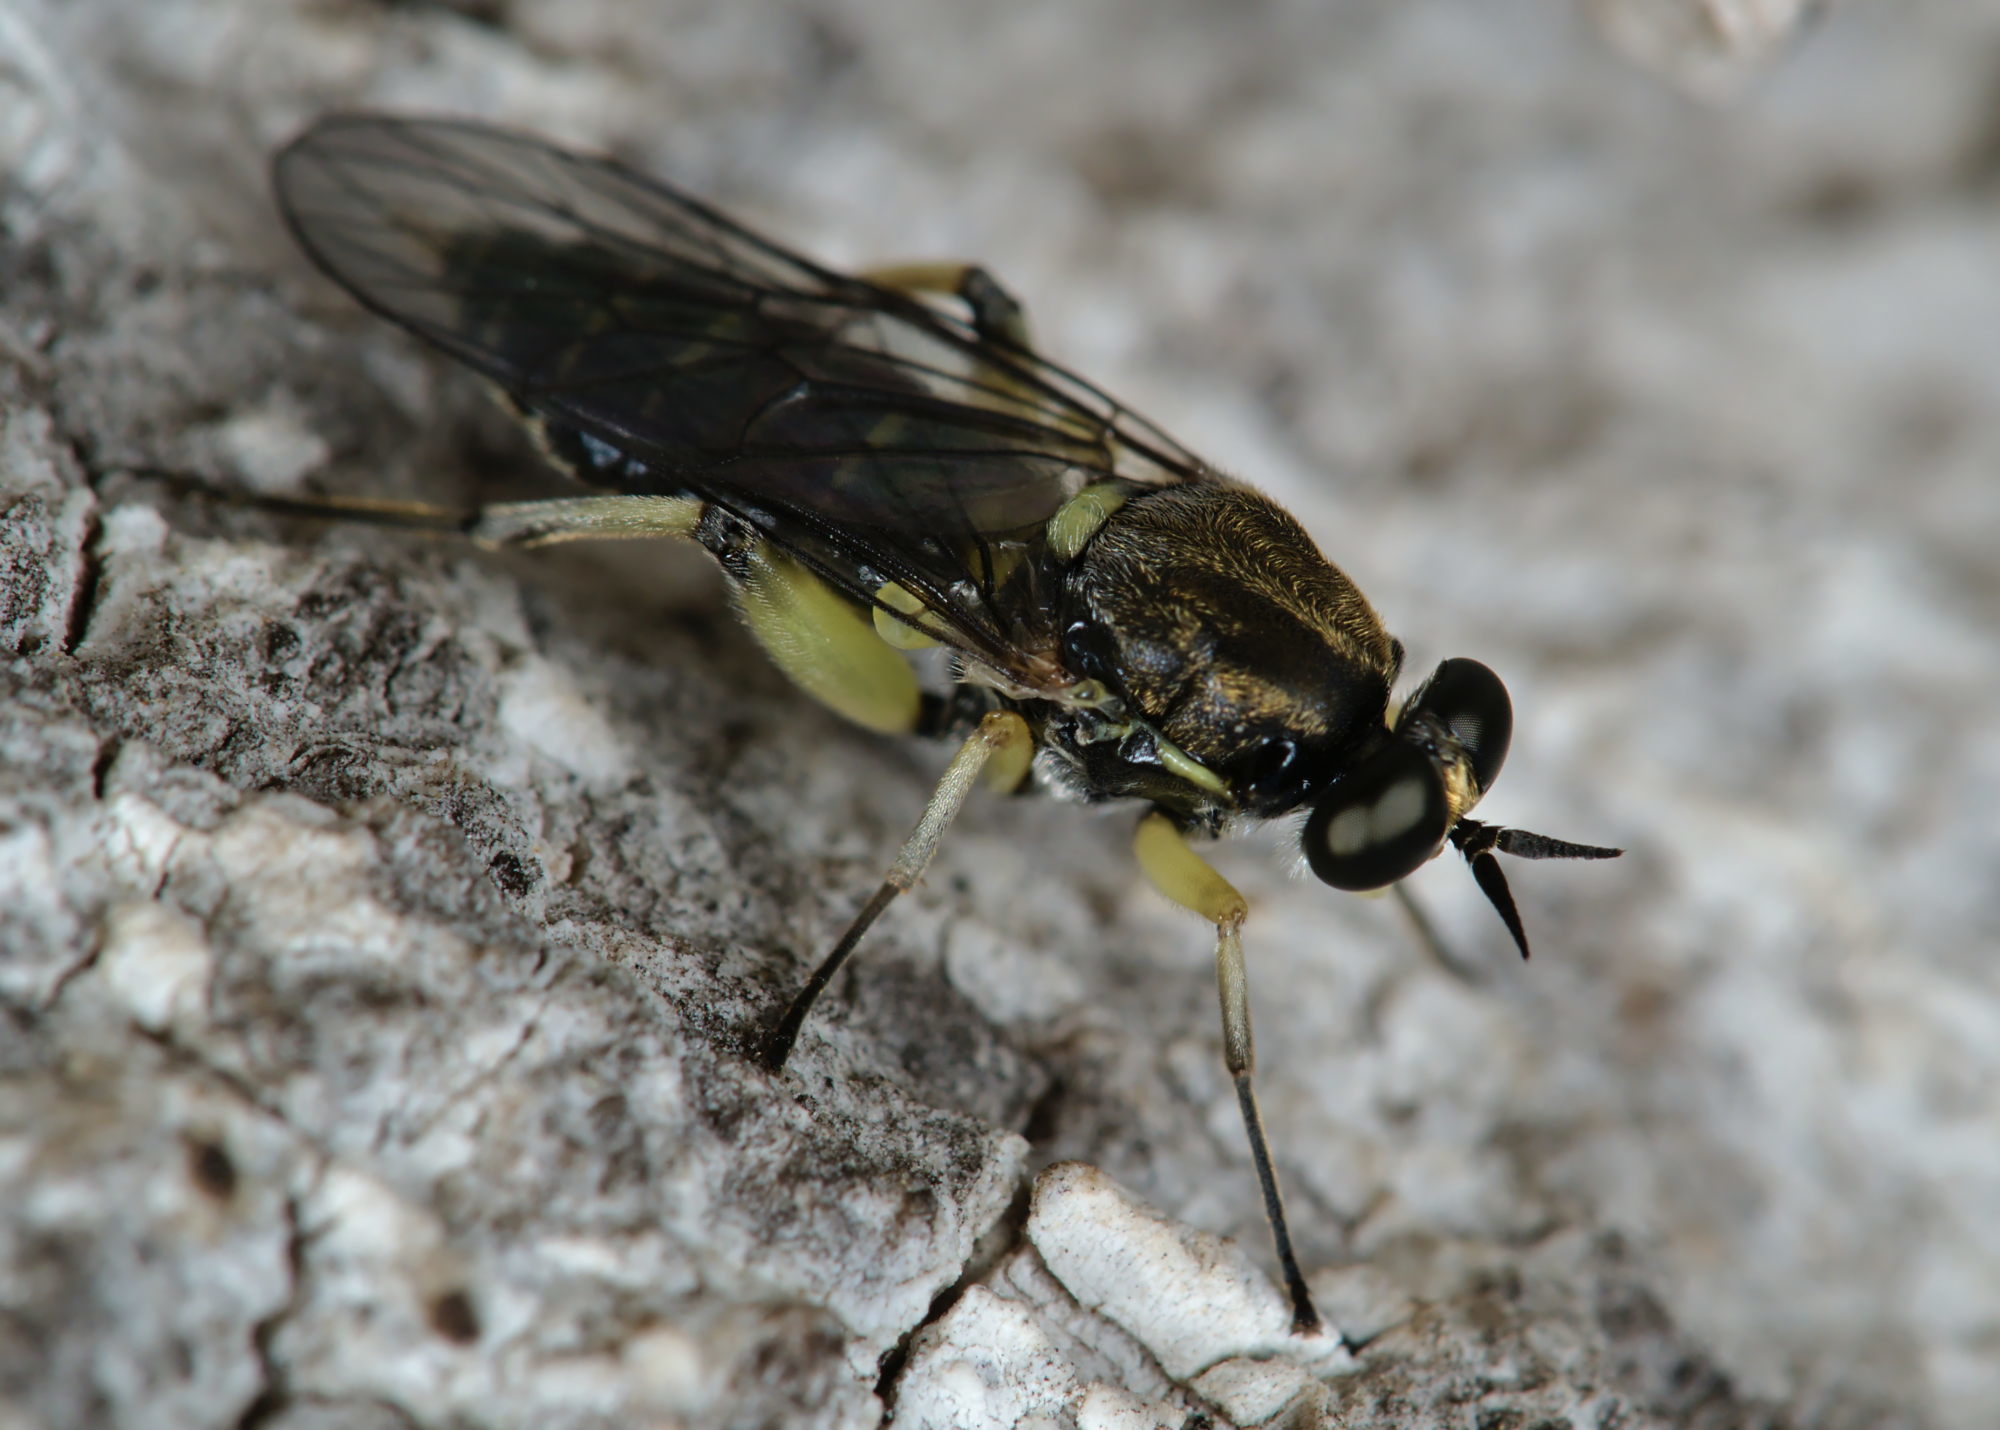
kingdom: Animalia
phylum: Arthropoda
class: Insecta
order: Diptera
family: Xylomyidae
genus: Solva
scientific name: Solva marginata
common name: Drab wood-soldierfly
